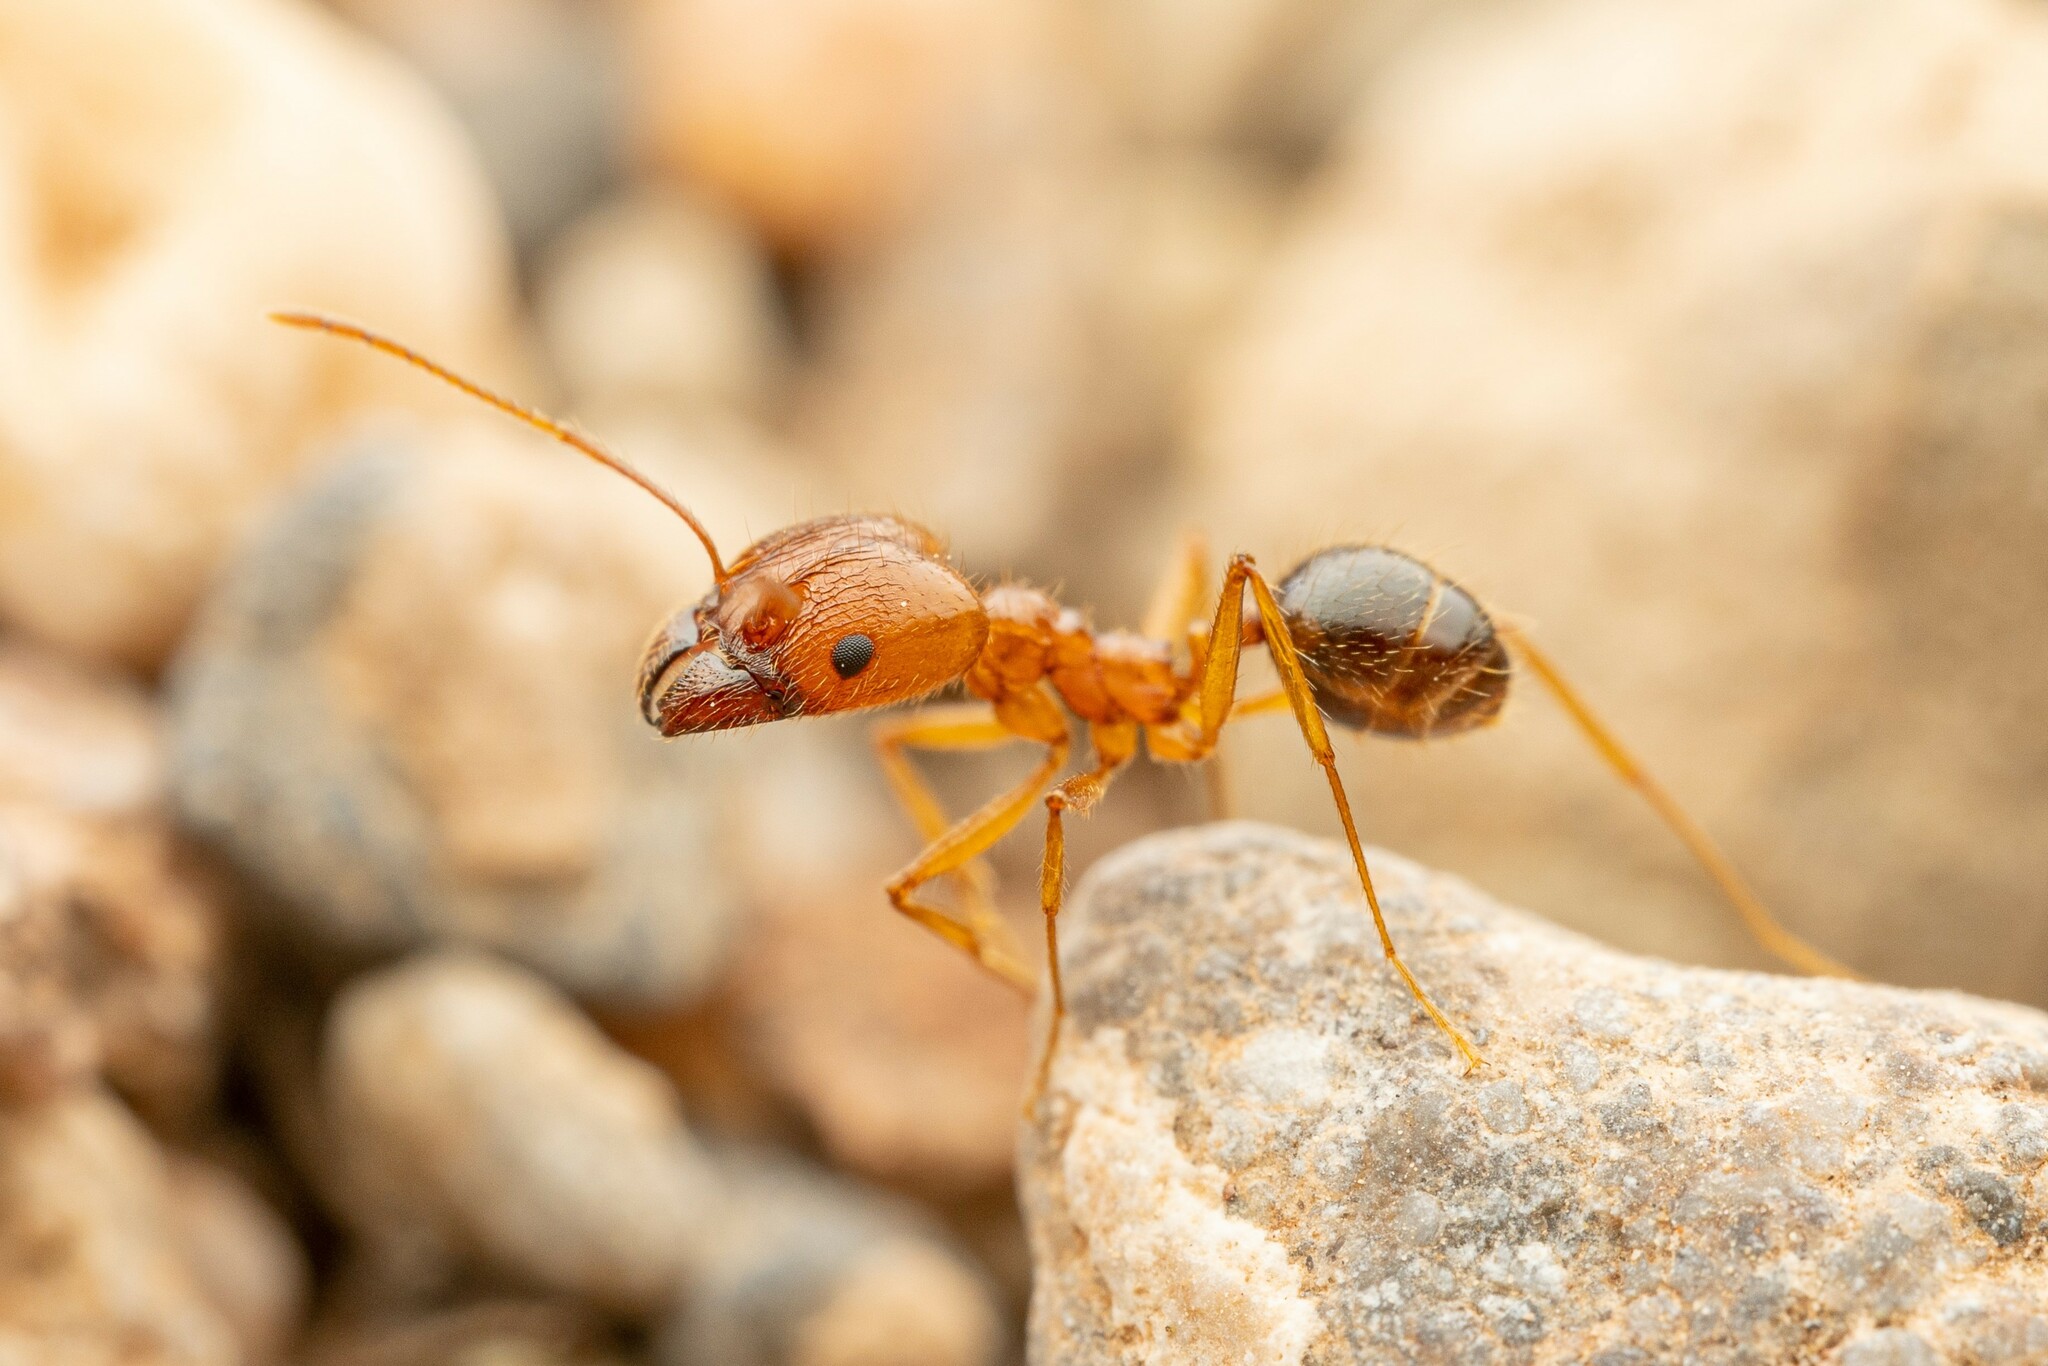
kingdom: Animalia
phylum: Arthropoda
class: Insecta
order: Hymenoptera
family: Formicidae
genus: Pheidole
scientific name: Pheidole desertorum
